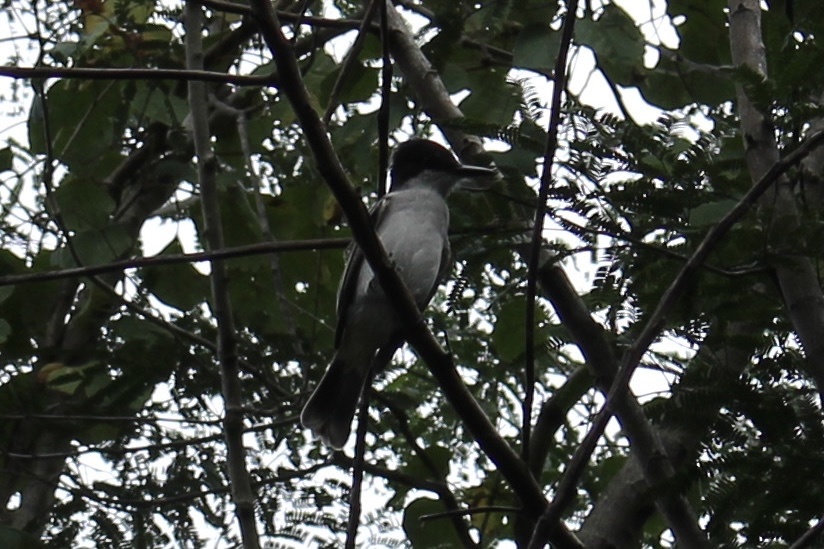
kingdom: Animalia
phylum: Chordata
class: Aves
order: Passeriformes
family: Tyrannidae
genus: Tyrannus
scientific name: Tyrannus caudifasciatus
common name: Loggerhead kingbird
